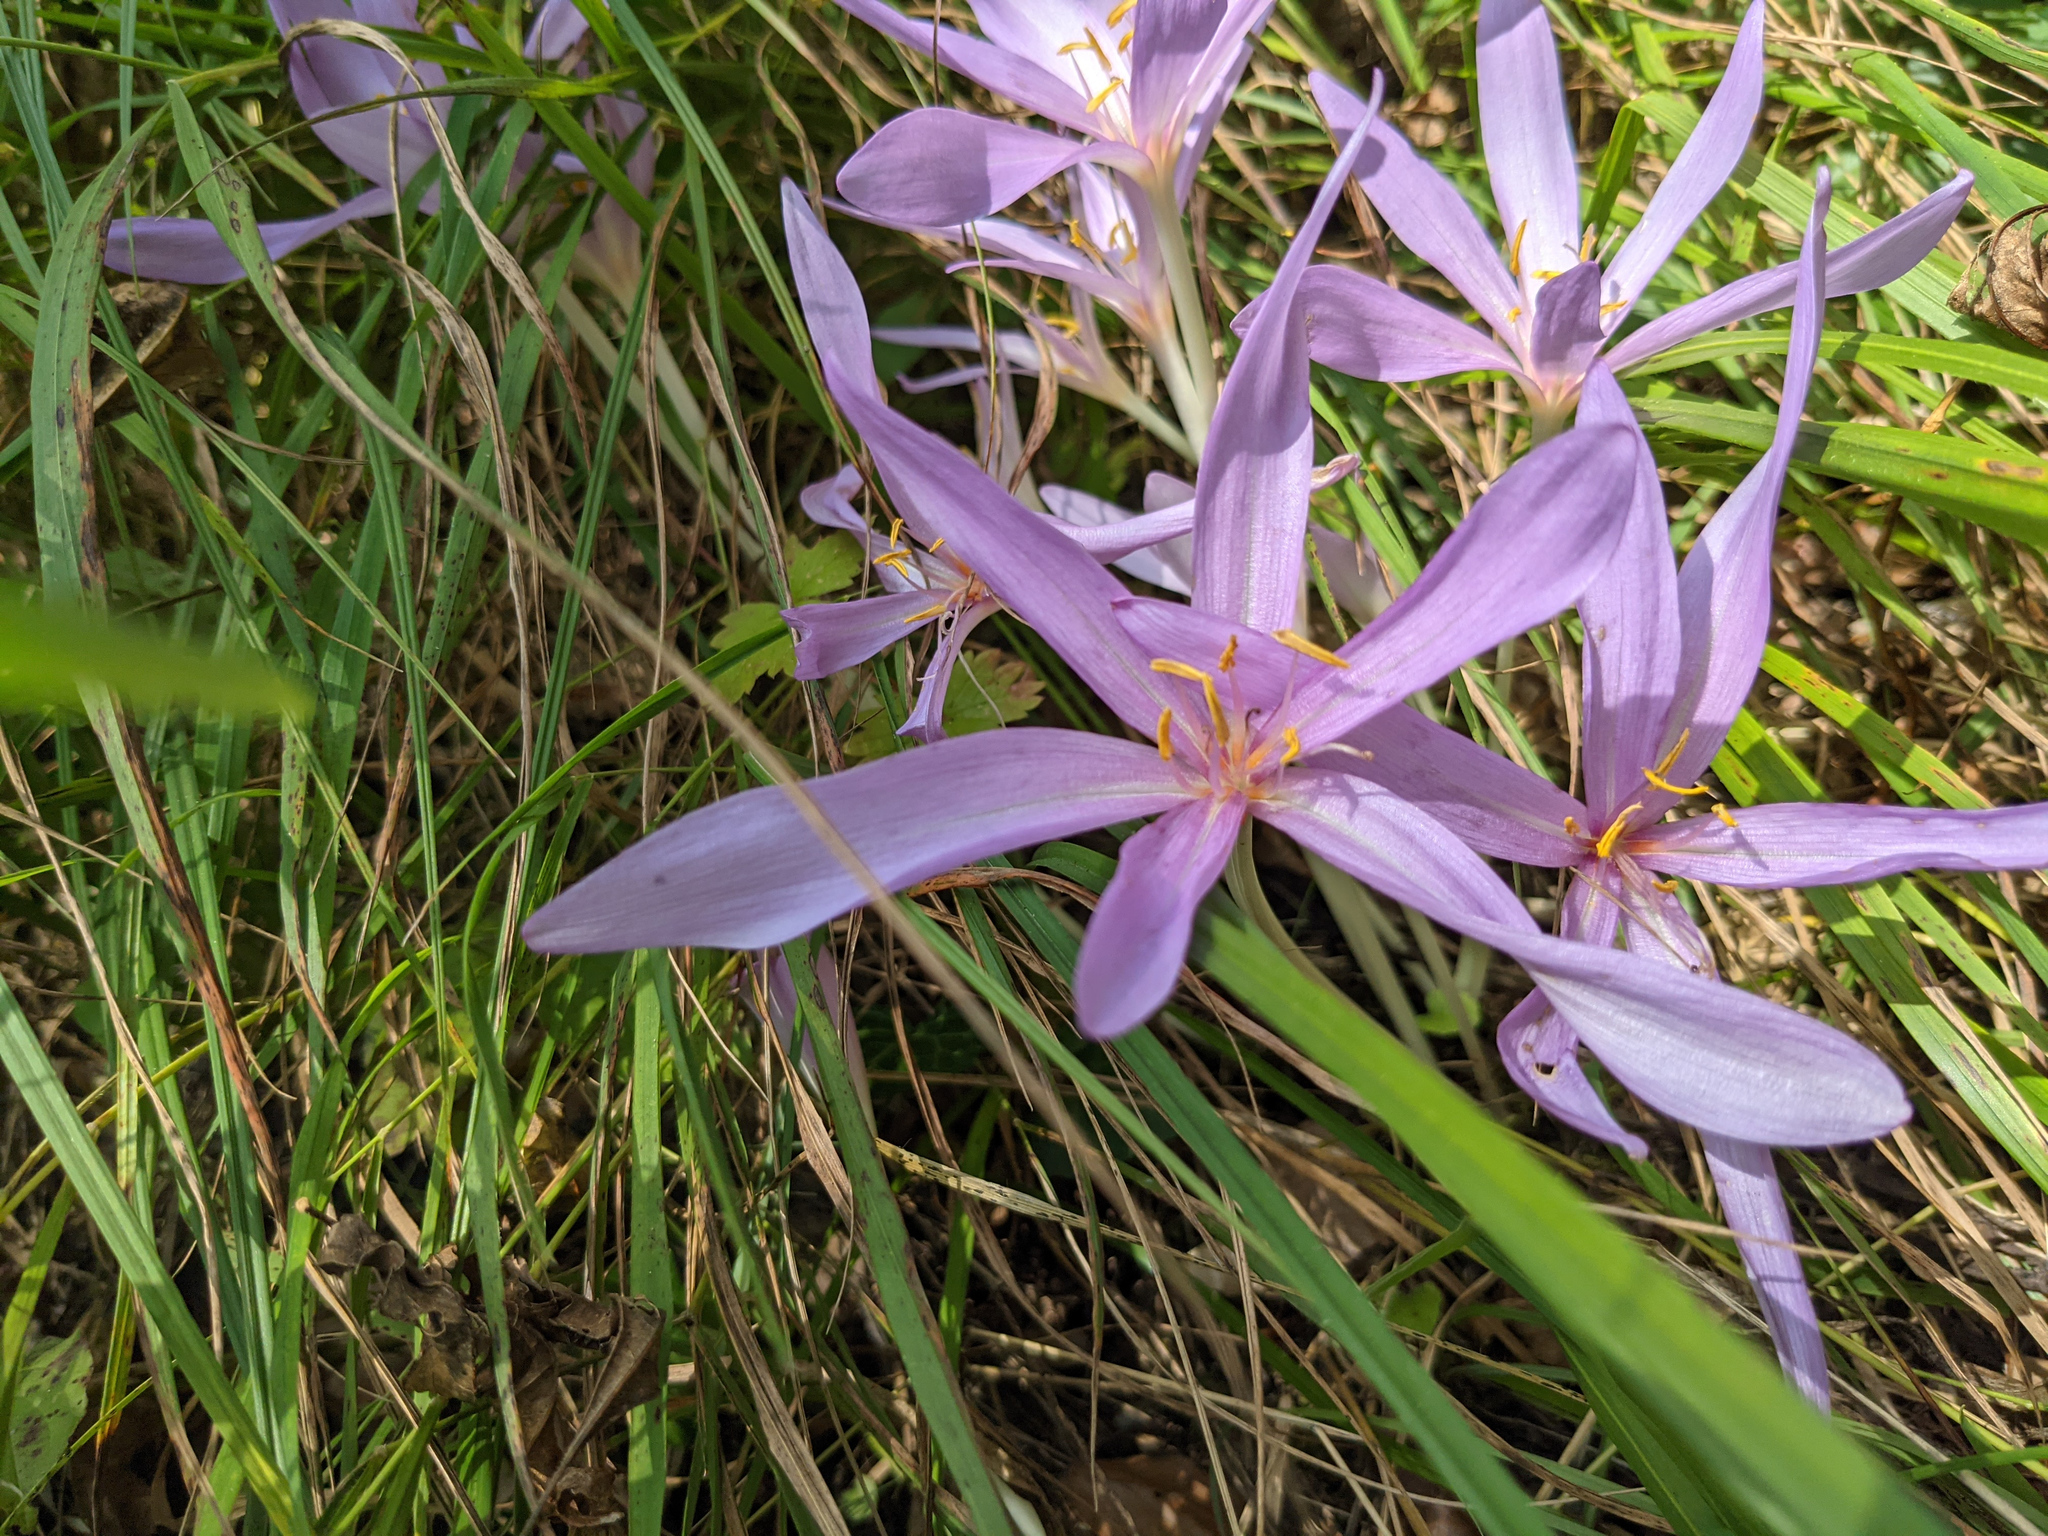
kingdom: Plantae
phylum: Tracheophyta
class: Liliopsida
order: Liliales
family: Colchicaceae
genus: Colchicum
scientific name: Colchicum autumnale
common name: Autumn crocus
